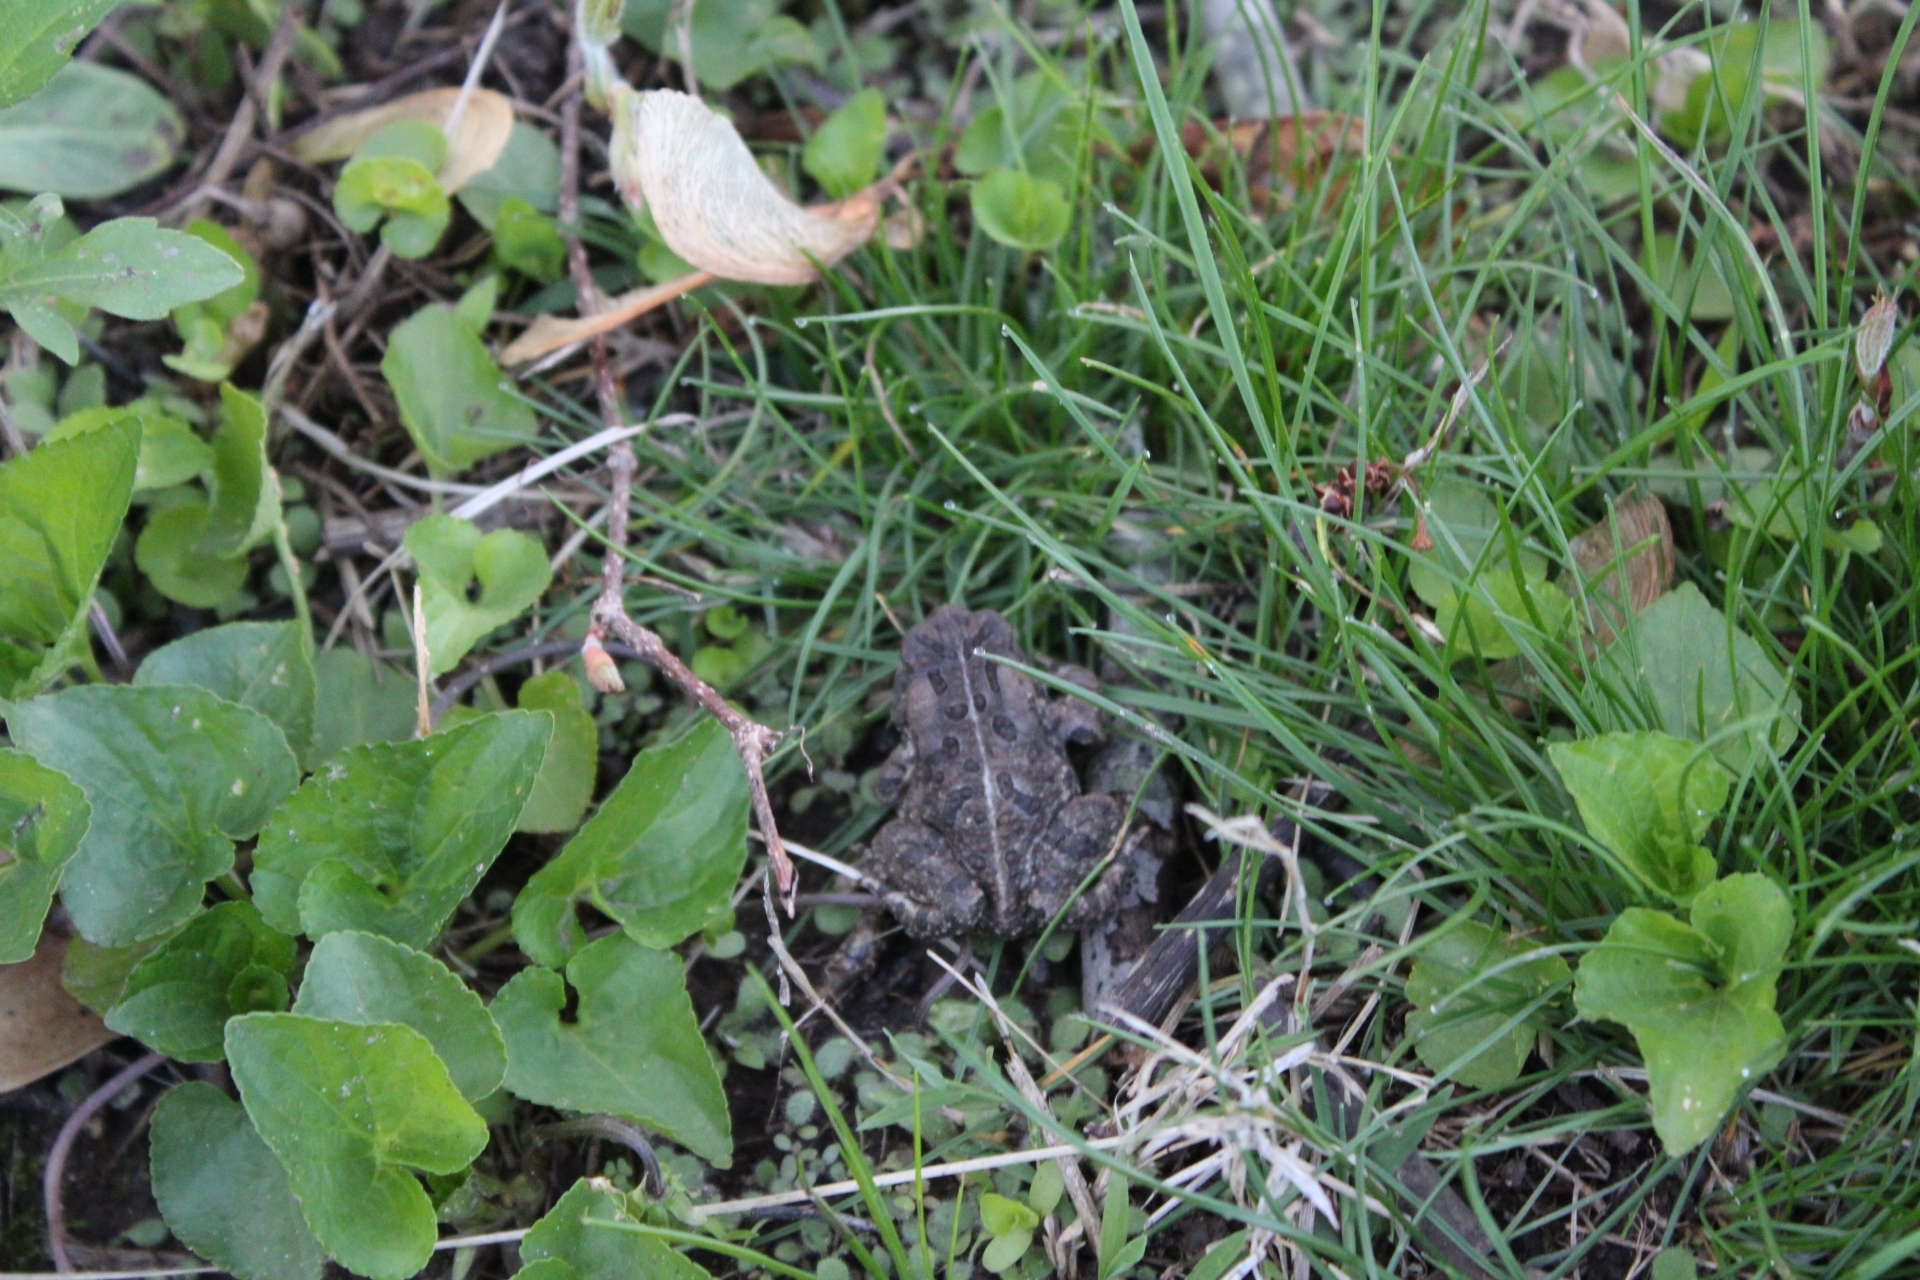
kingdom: Animalia
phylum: Chordata
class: Amphibia
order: Anura
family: Bufonidae
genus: Anaxyrus
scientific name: Anaxyrus fowleri
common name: Fowler's toad
